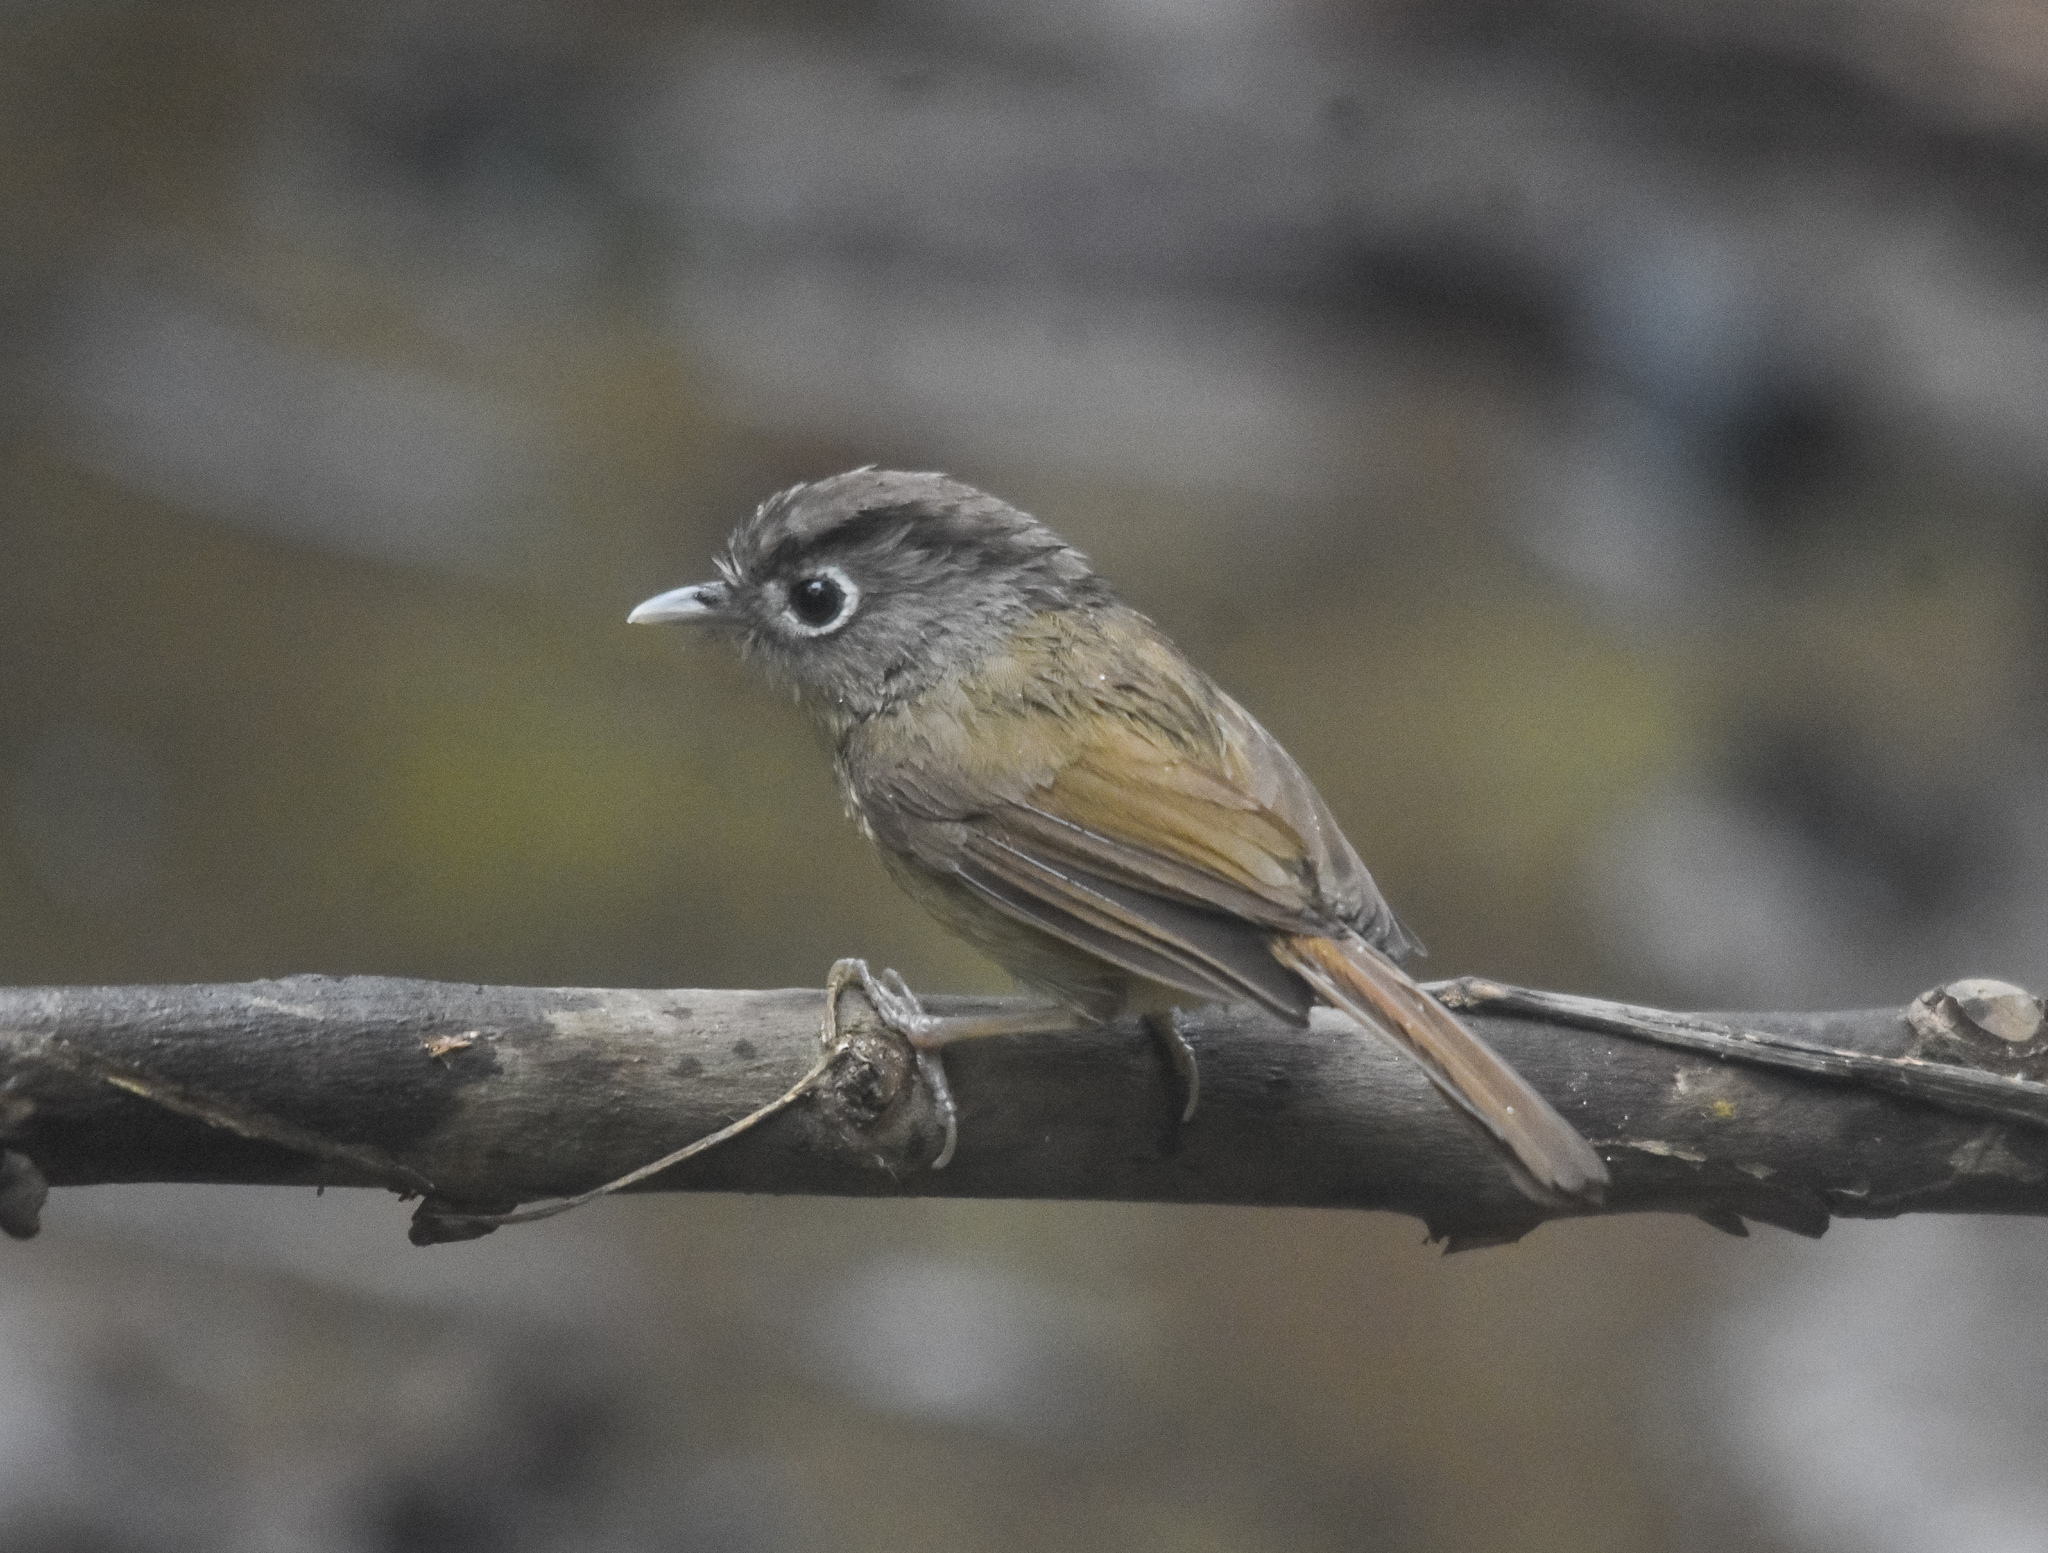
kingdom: Animalia
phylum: Chordata
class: Aves
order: Passeriformes
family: Pellorneidae
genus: Alcippe
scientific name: Alcippe nipalensis
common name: Nepal fulvetta
